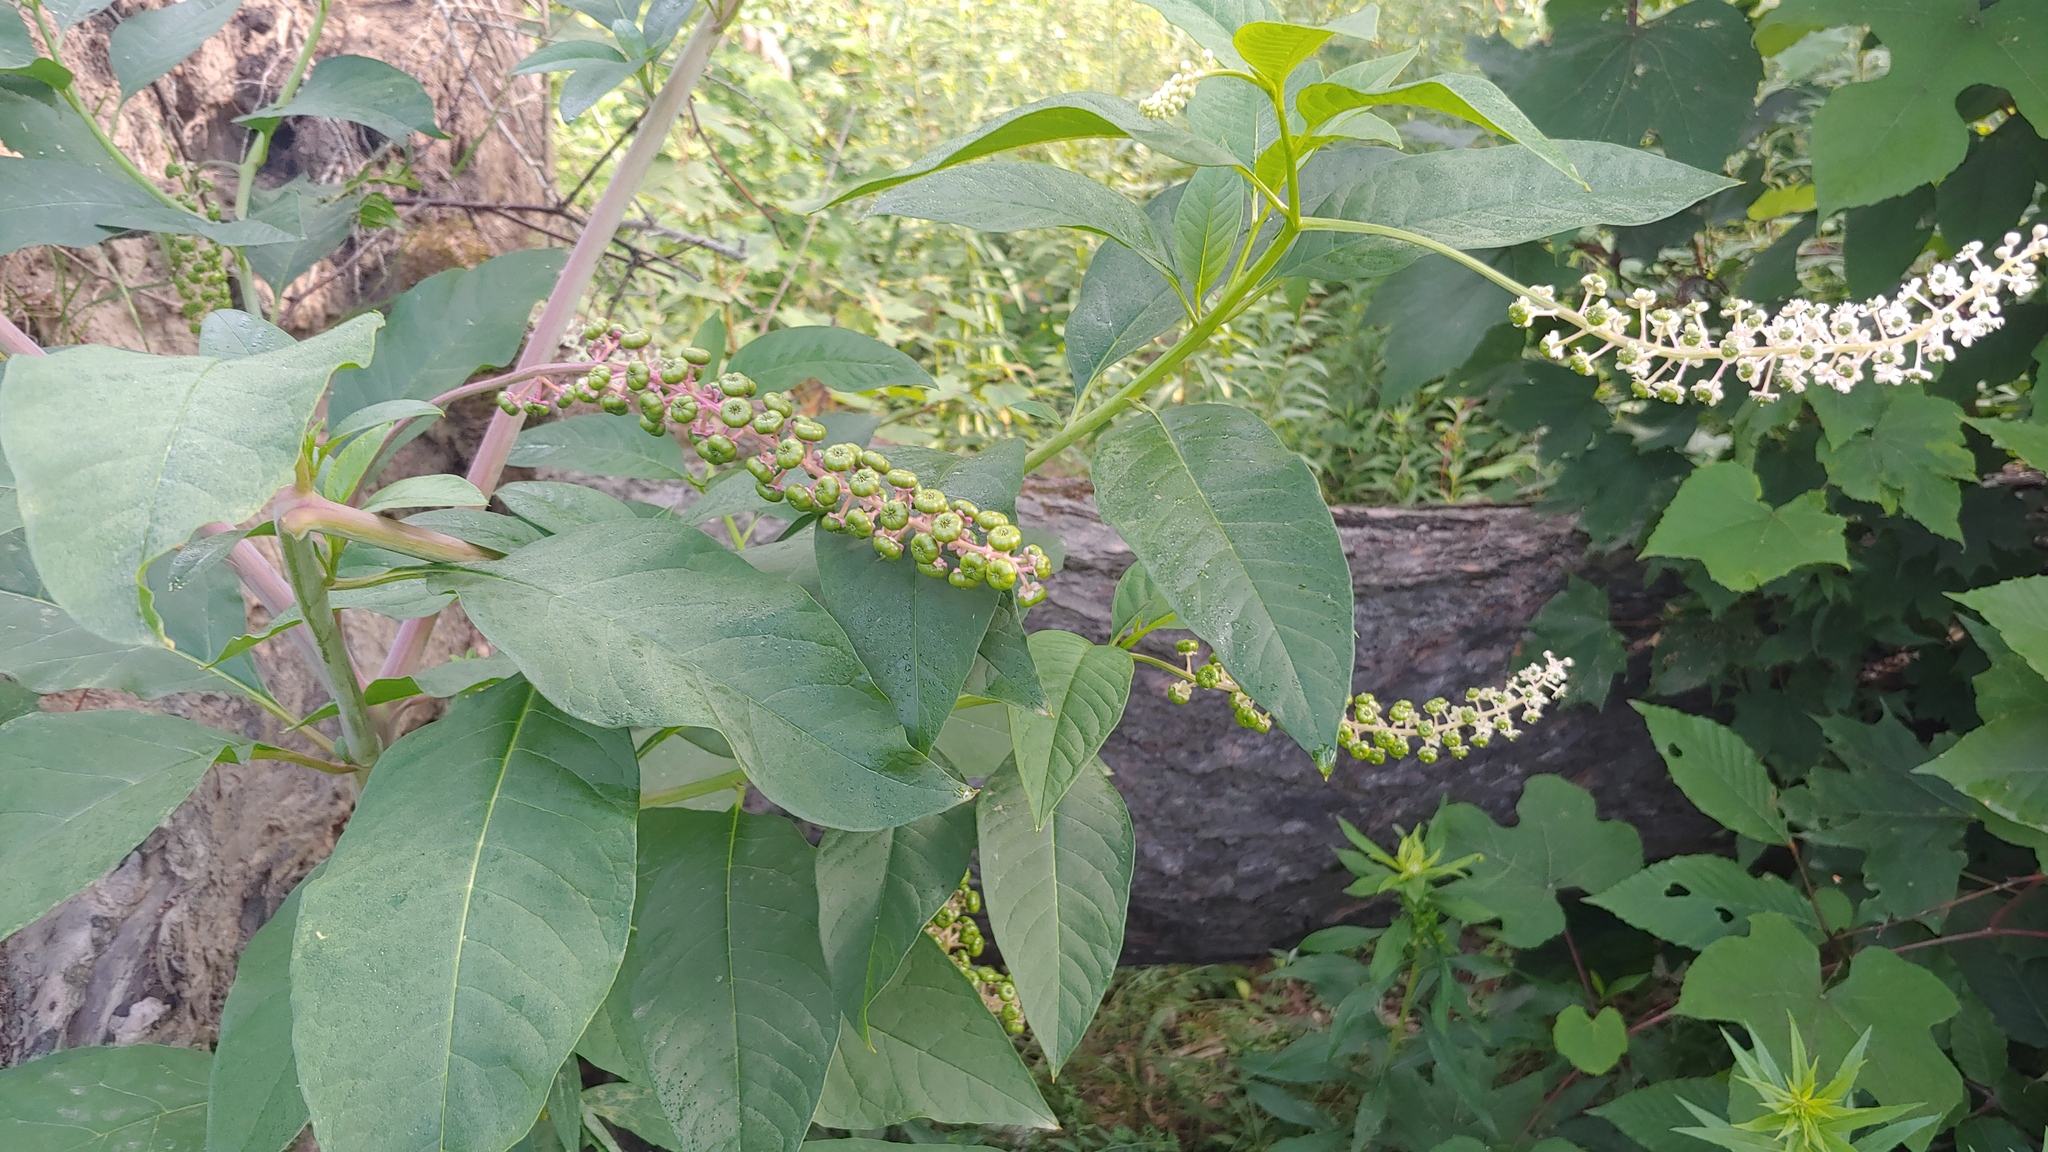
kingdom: Plantae
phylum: Tracheophyta
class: Magnoliopsida
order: Caryophyllales
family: Phytolaccaceae
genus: Phytolacca
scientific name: Phytolacca americana
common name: American pokeweed
